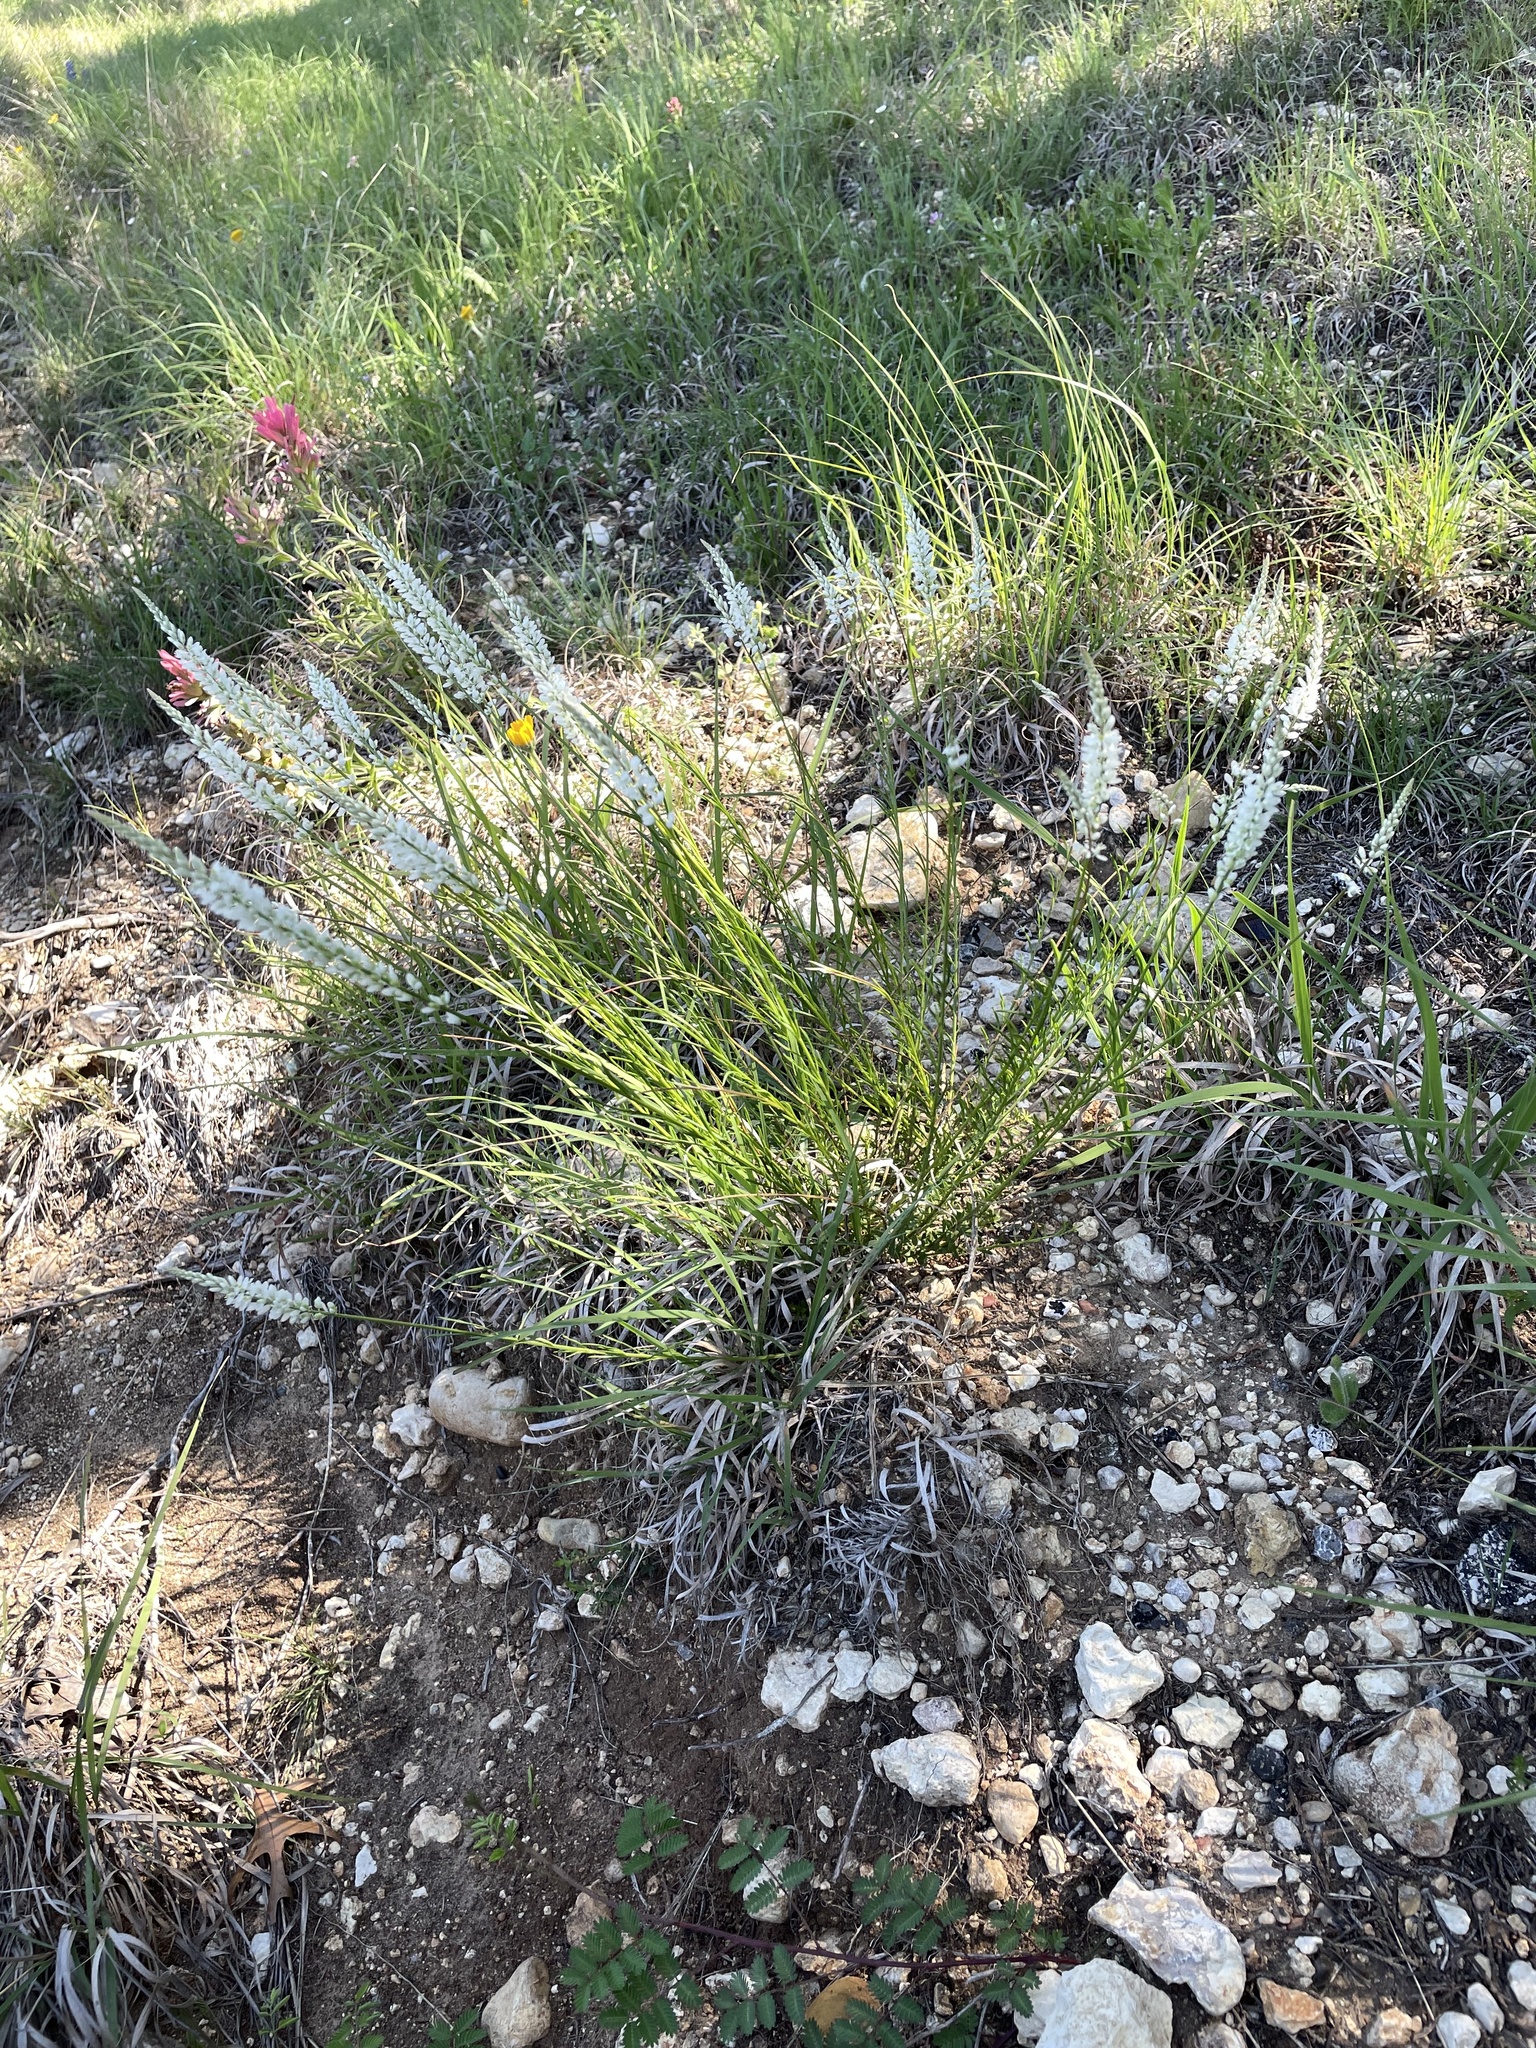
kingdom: Plantae
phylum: Tracheophyta
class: Magnoliopsida
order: Fabales
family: Polygalaceae
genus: Polygala
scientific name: Polygala alba
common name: White milkwort
